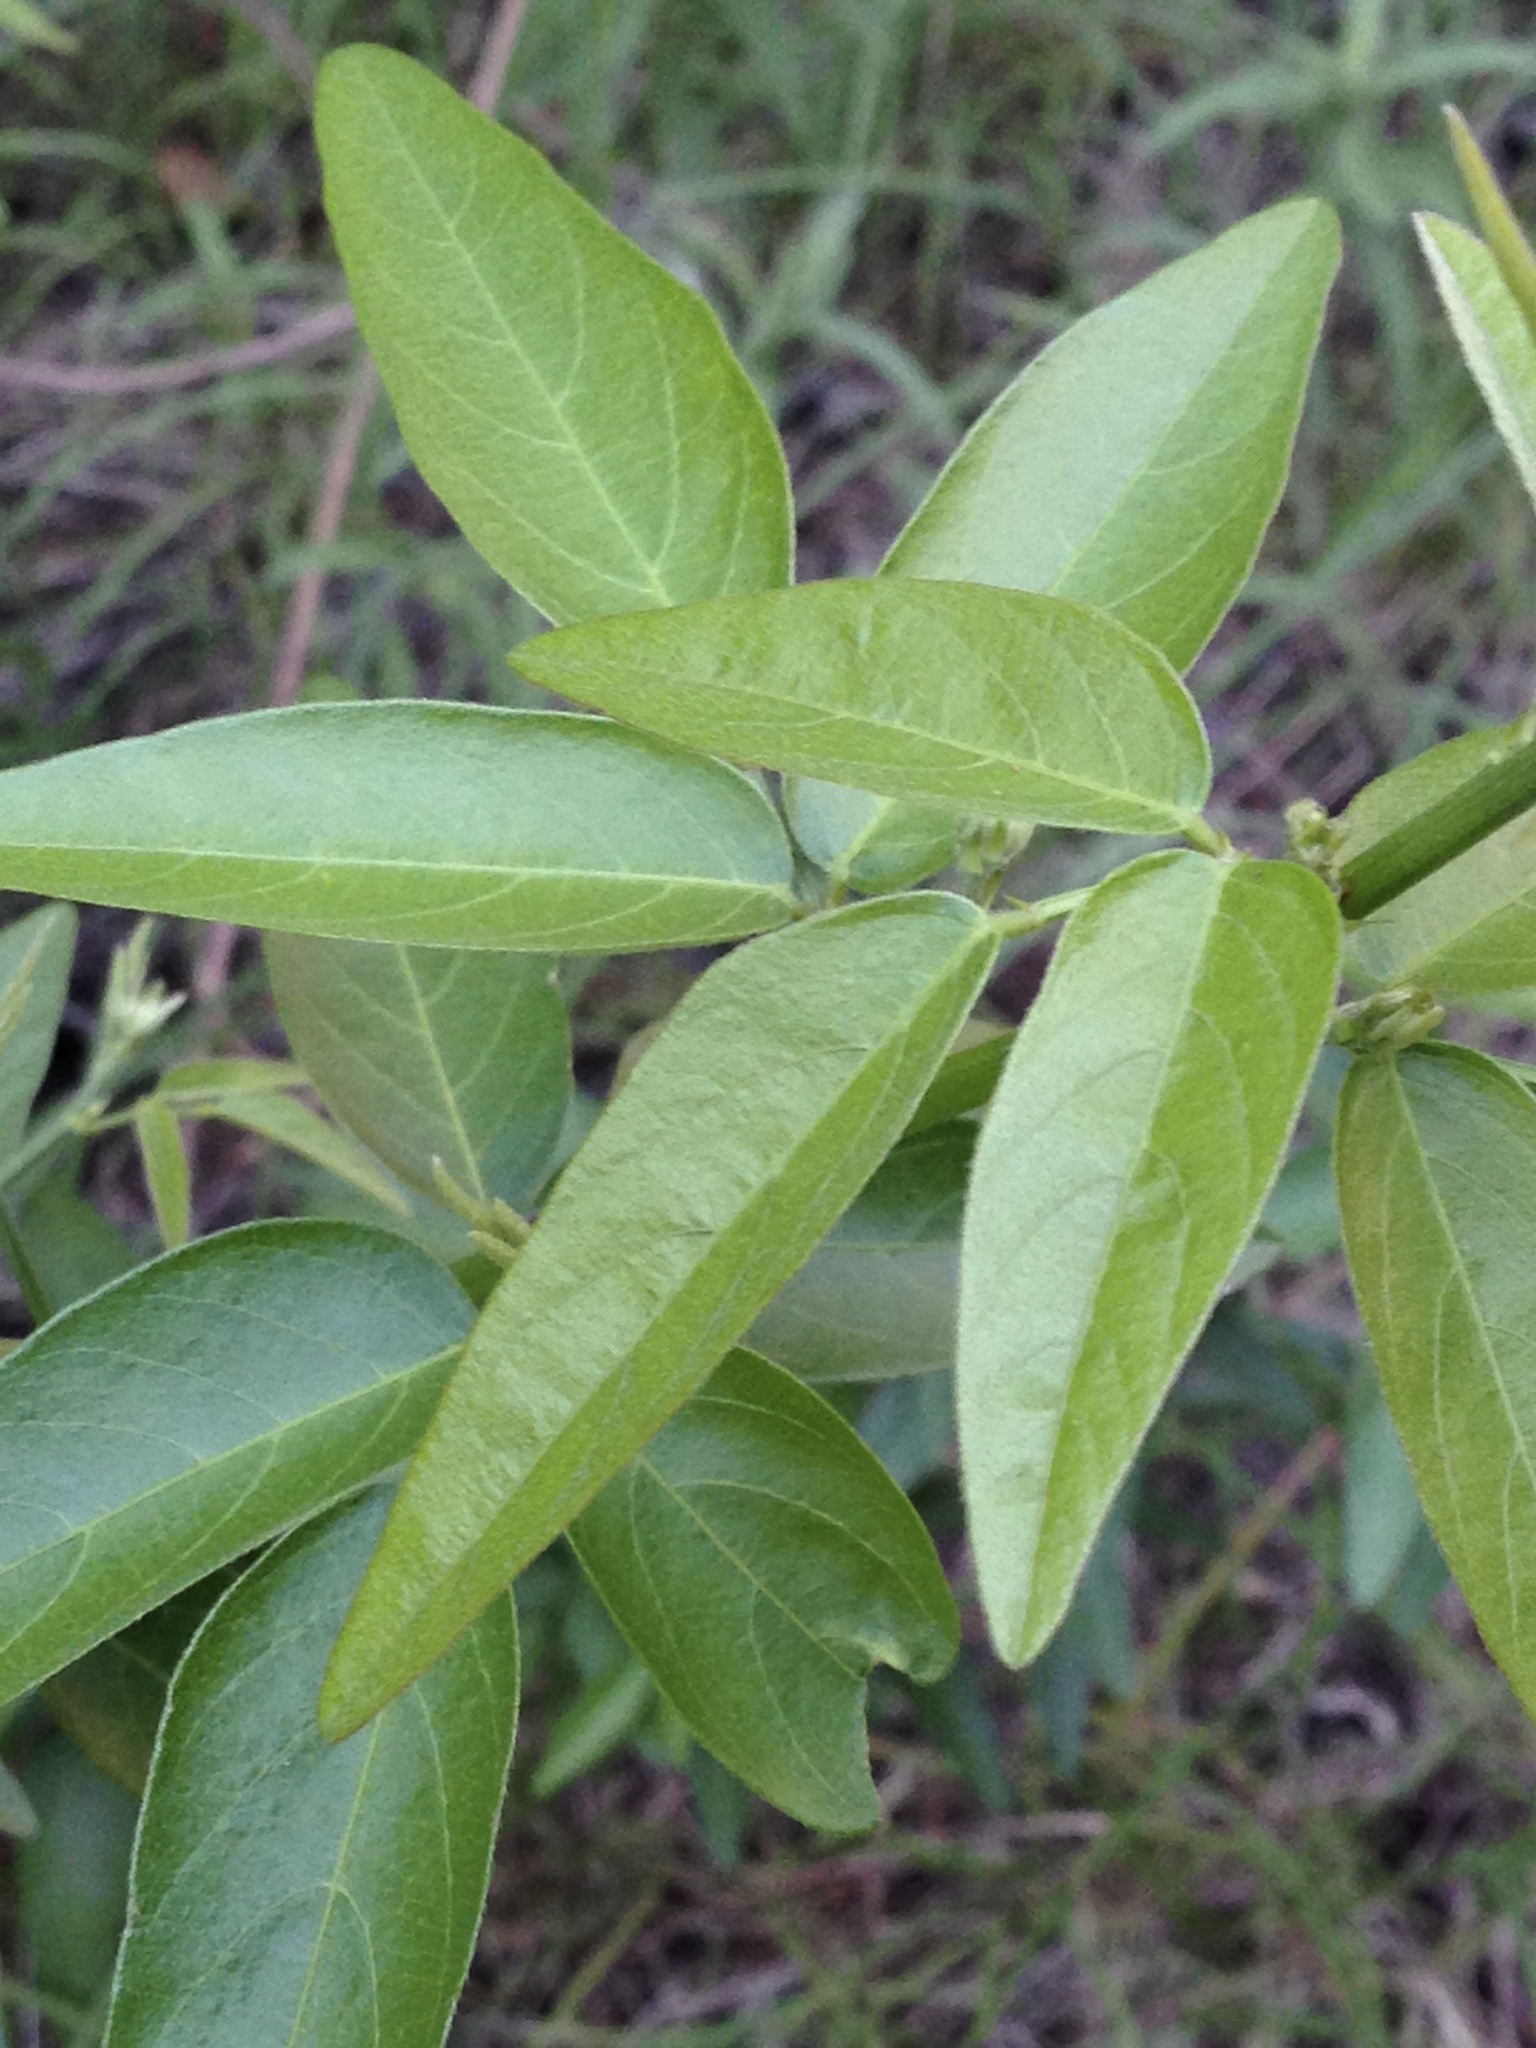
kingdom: Plantae
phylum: Tracheophyta
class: Magnoliopsida
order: Fabales
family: Fabaceae
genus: Desmodium
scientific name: Desmodium paniculatum
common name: Panicled tick-clover
